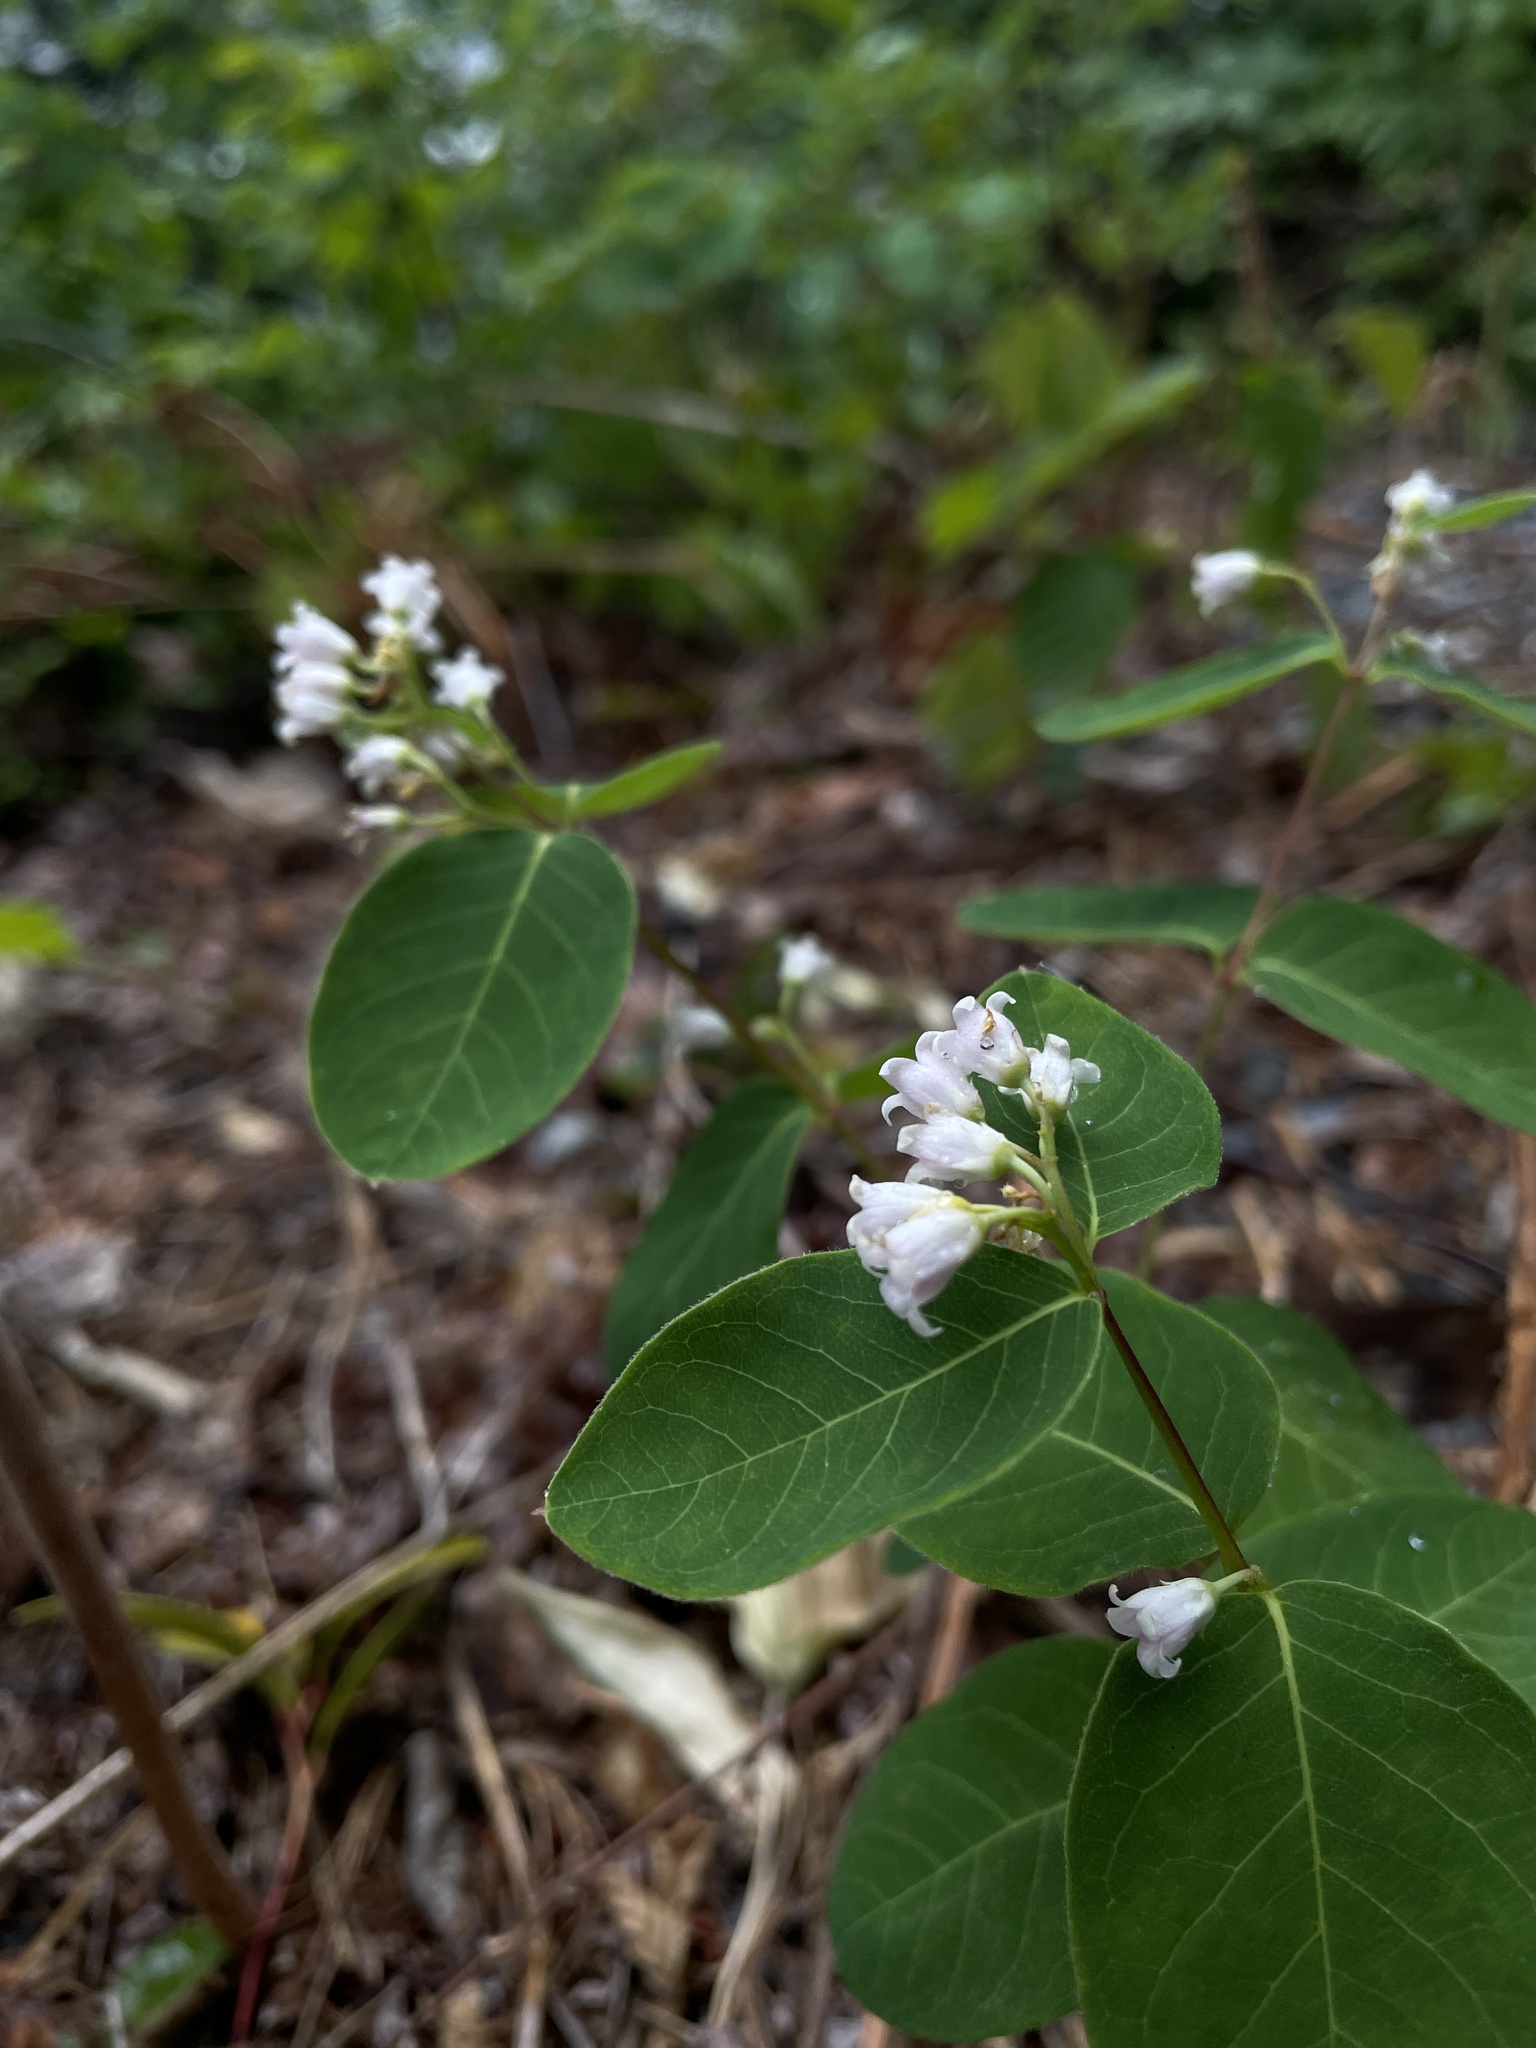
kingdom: Plantae
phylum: Tracheophyta
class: Magnoliopsida
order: Gentianales
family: Apocynaceae
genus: Apocynum
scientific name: Apocynum androsaemifolium
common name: Spreading dogbane
